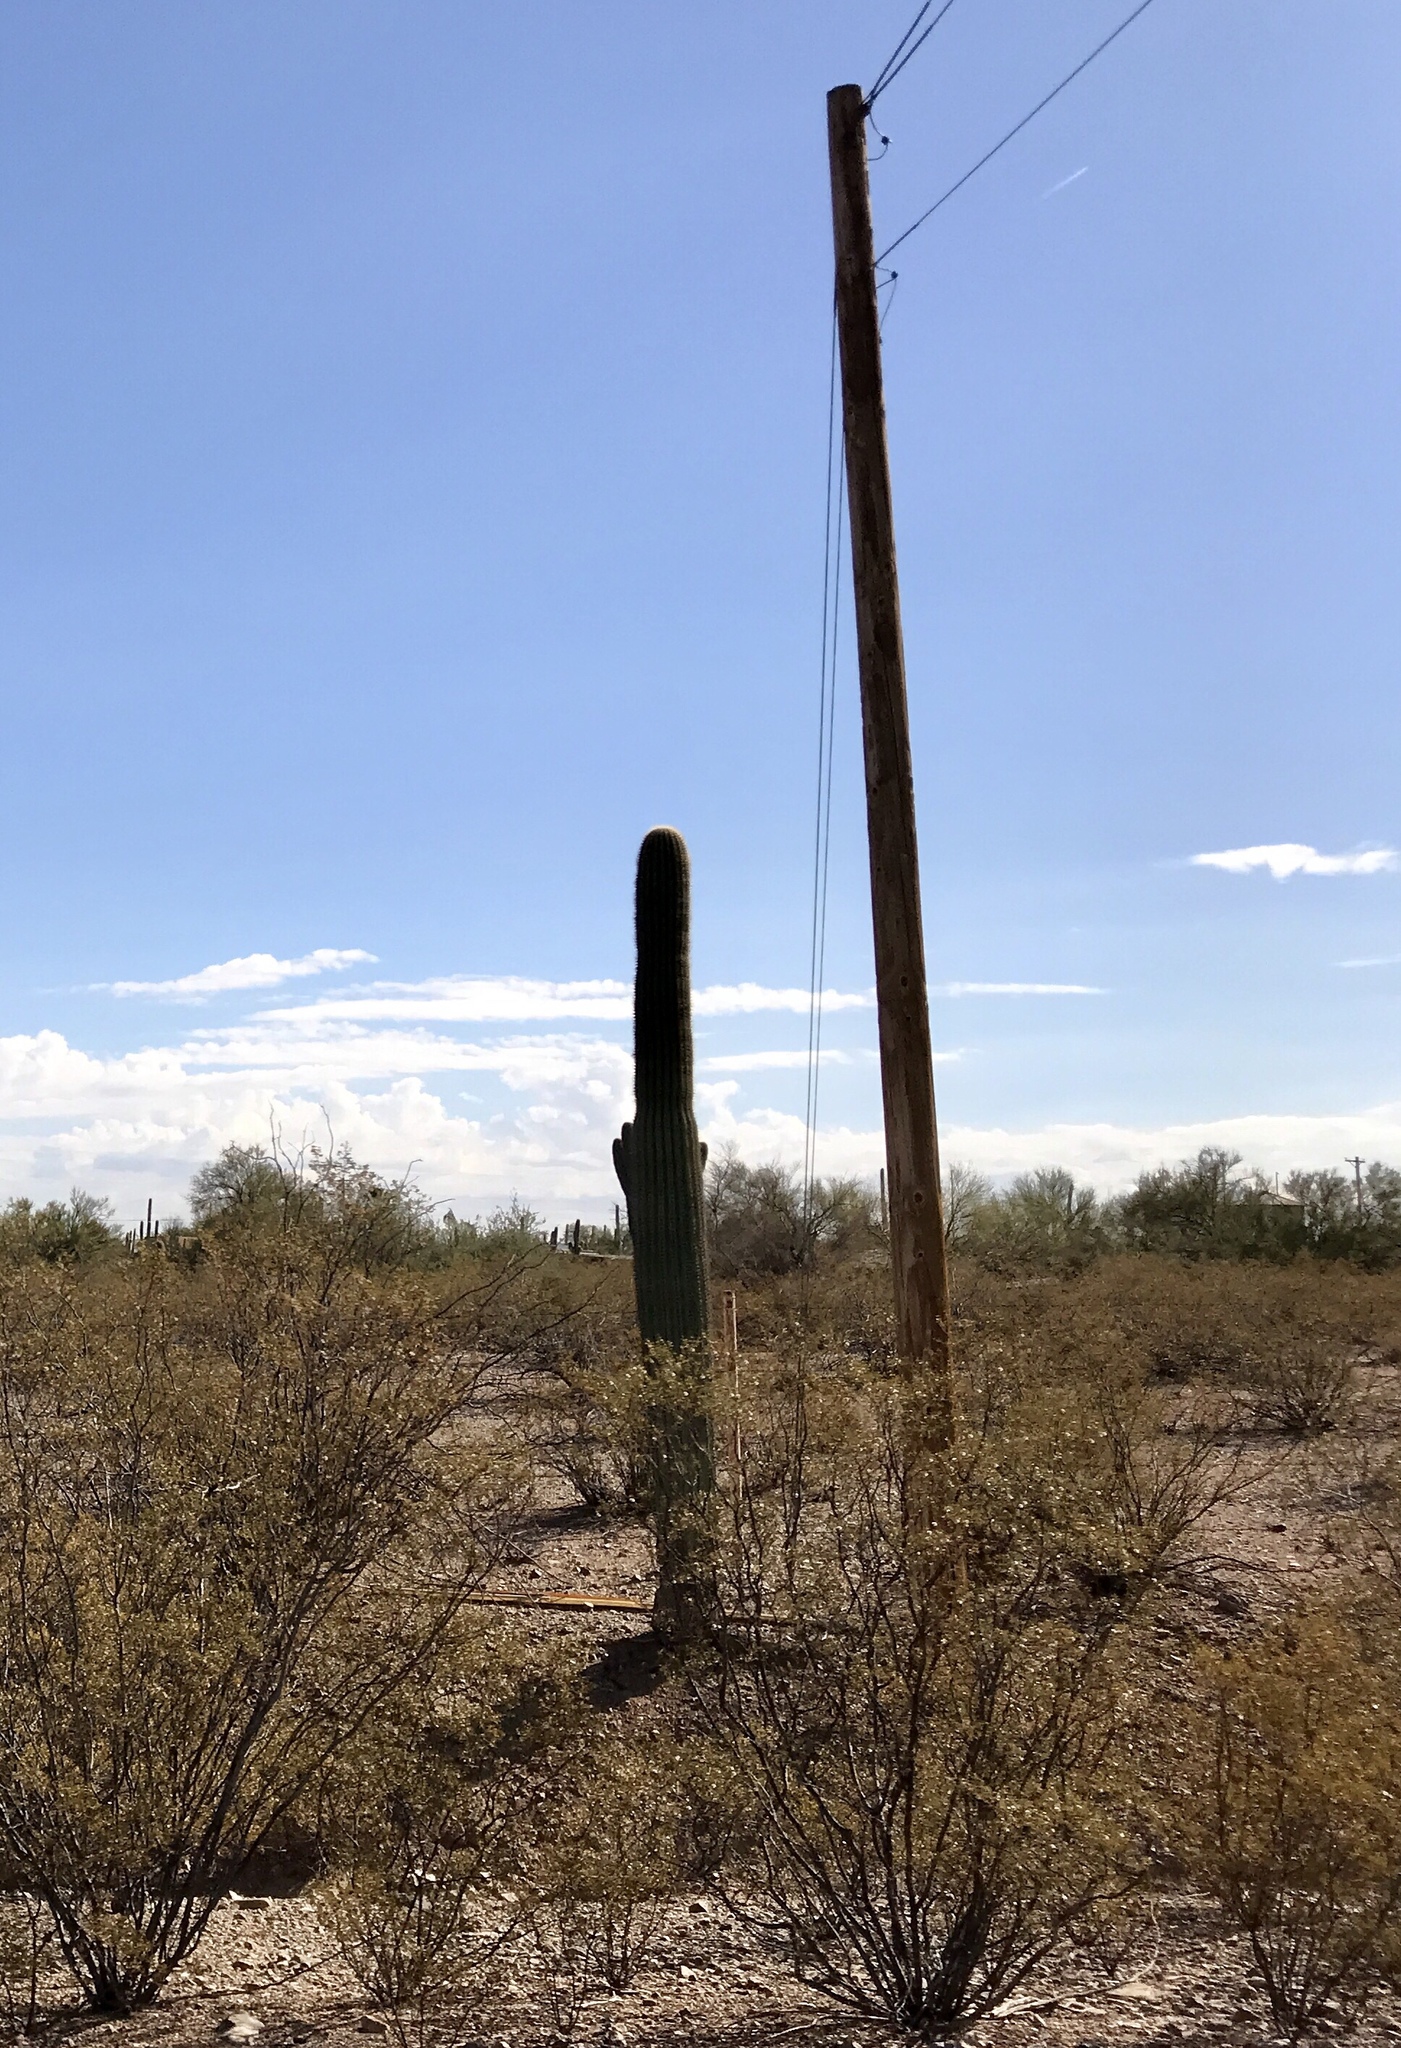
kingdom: Plantae
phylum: Tracheophyta
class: Magnoliopsida
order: Caryophyllales
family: Cactaceae
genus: Carnegiea
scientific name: Carnegiea gigantea
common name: Saguaro
